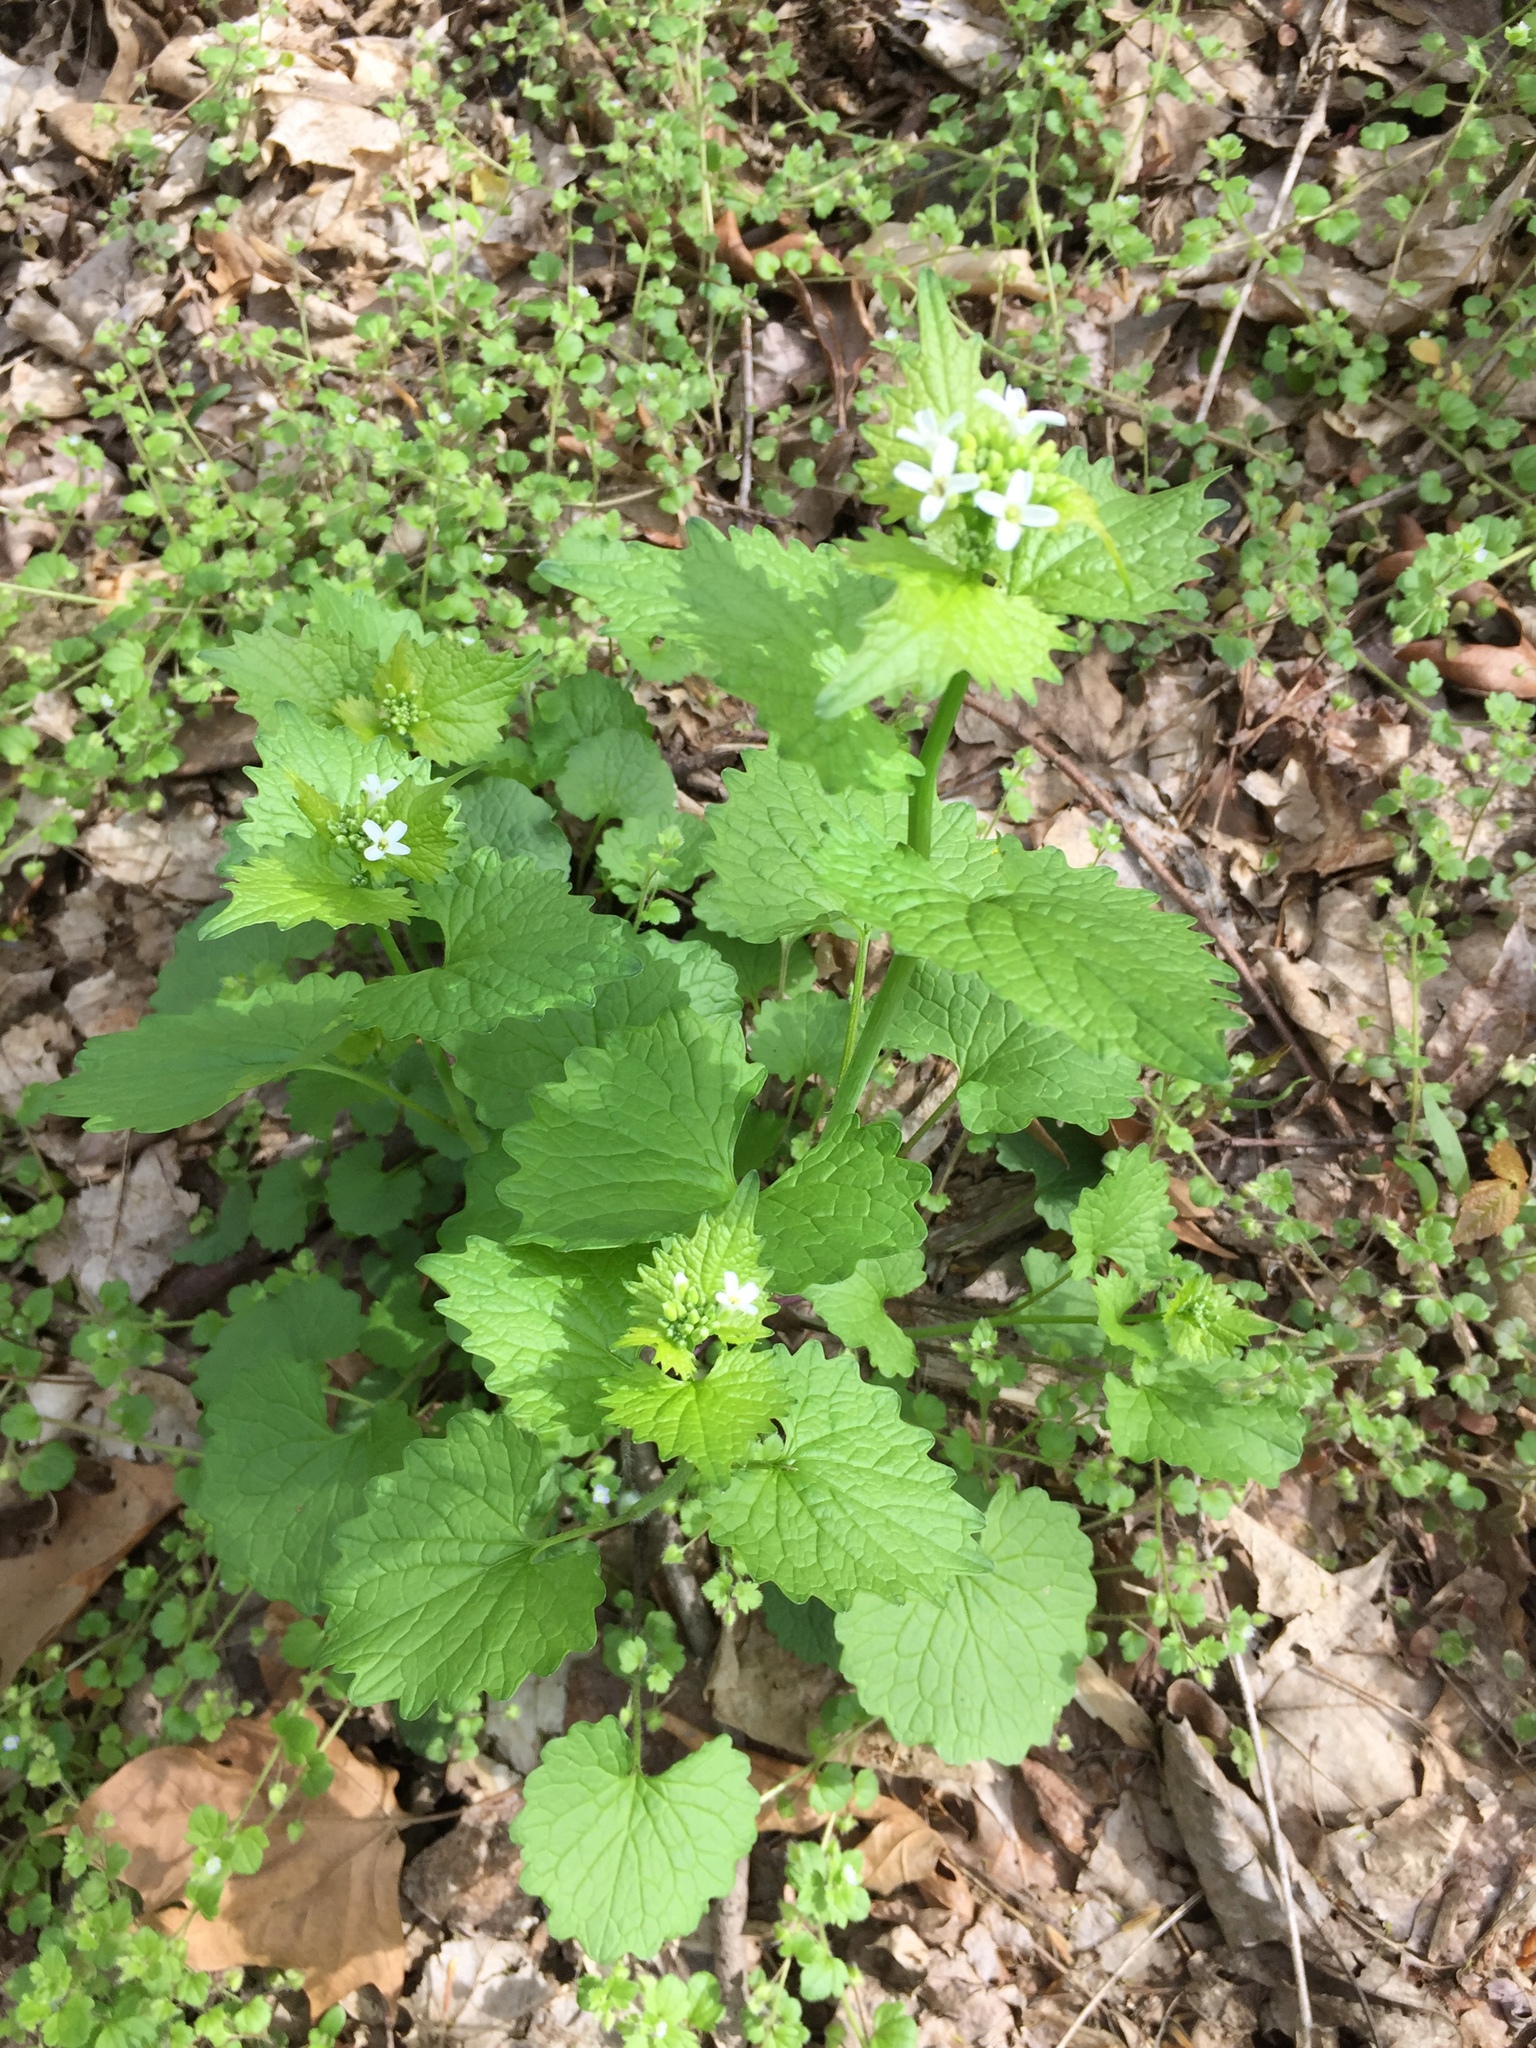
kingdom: Plantae
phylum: Tracheophyta
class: Magnoliopsida
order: Brassicales
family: Brassicaceae
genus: Alliaria
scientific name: Alliaria petiolata
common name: Garlic mustard
